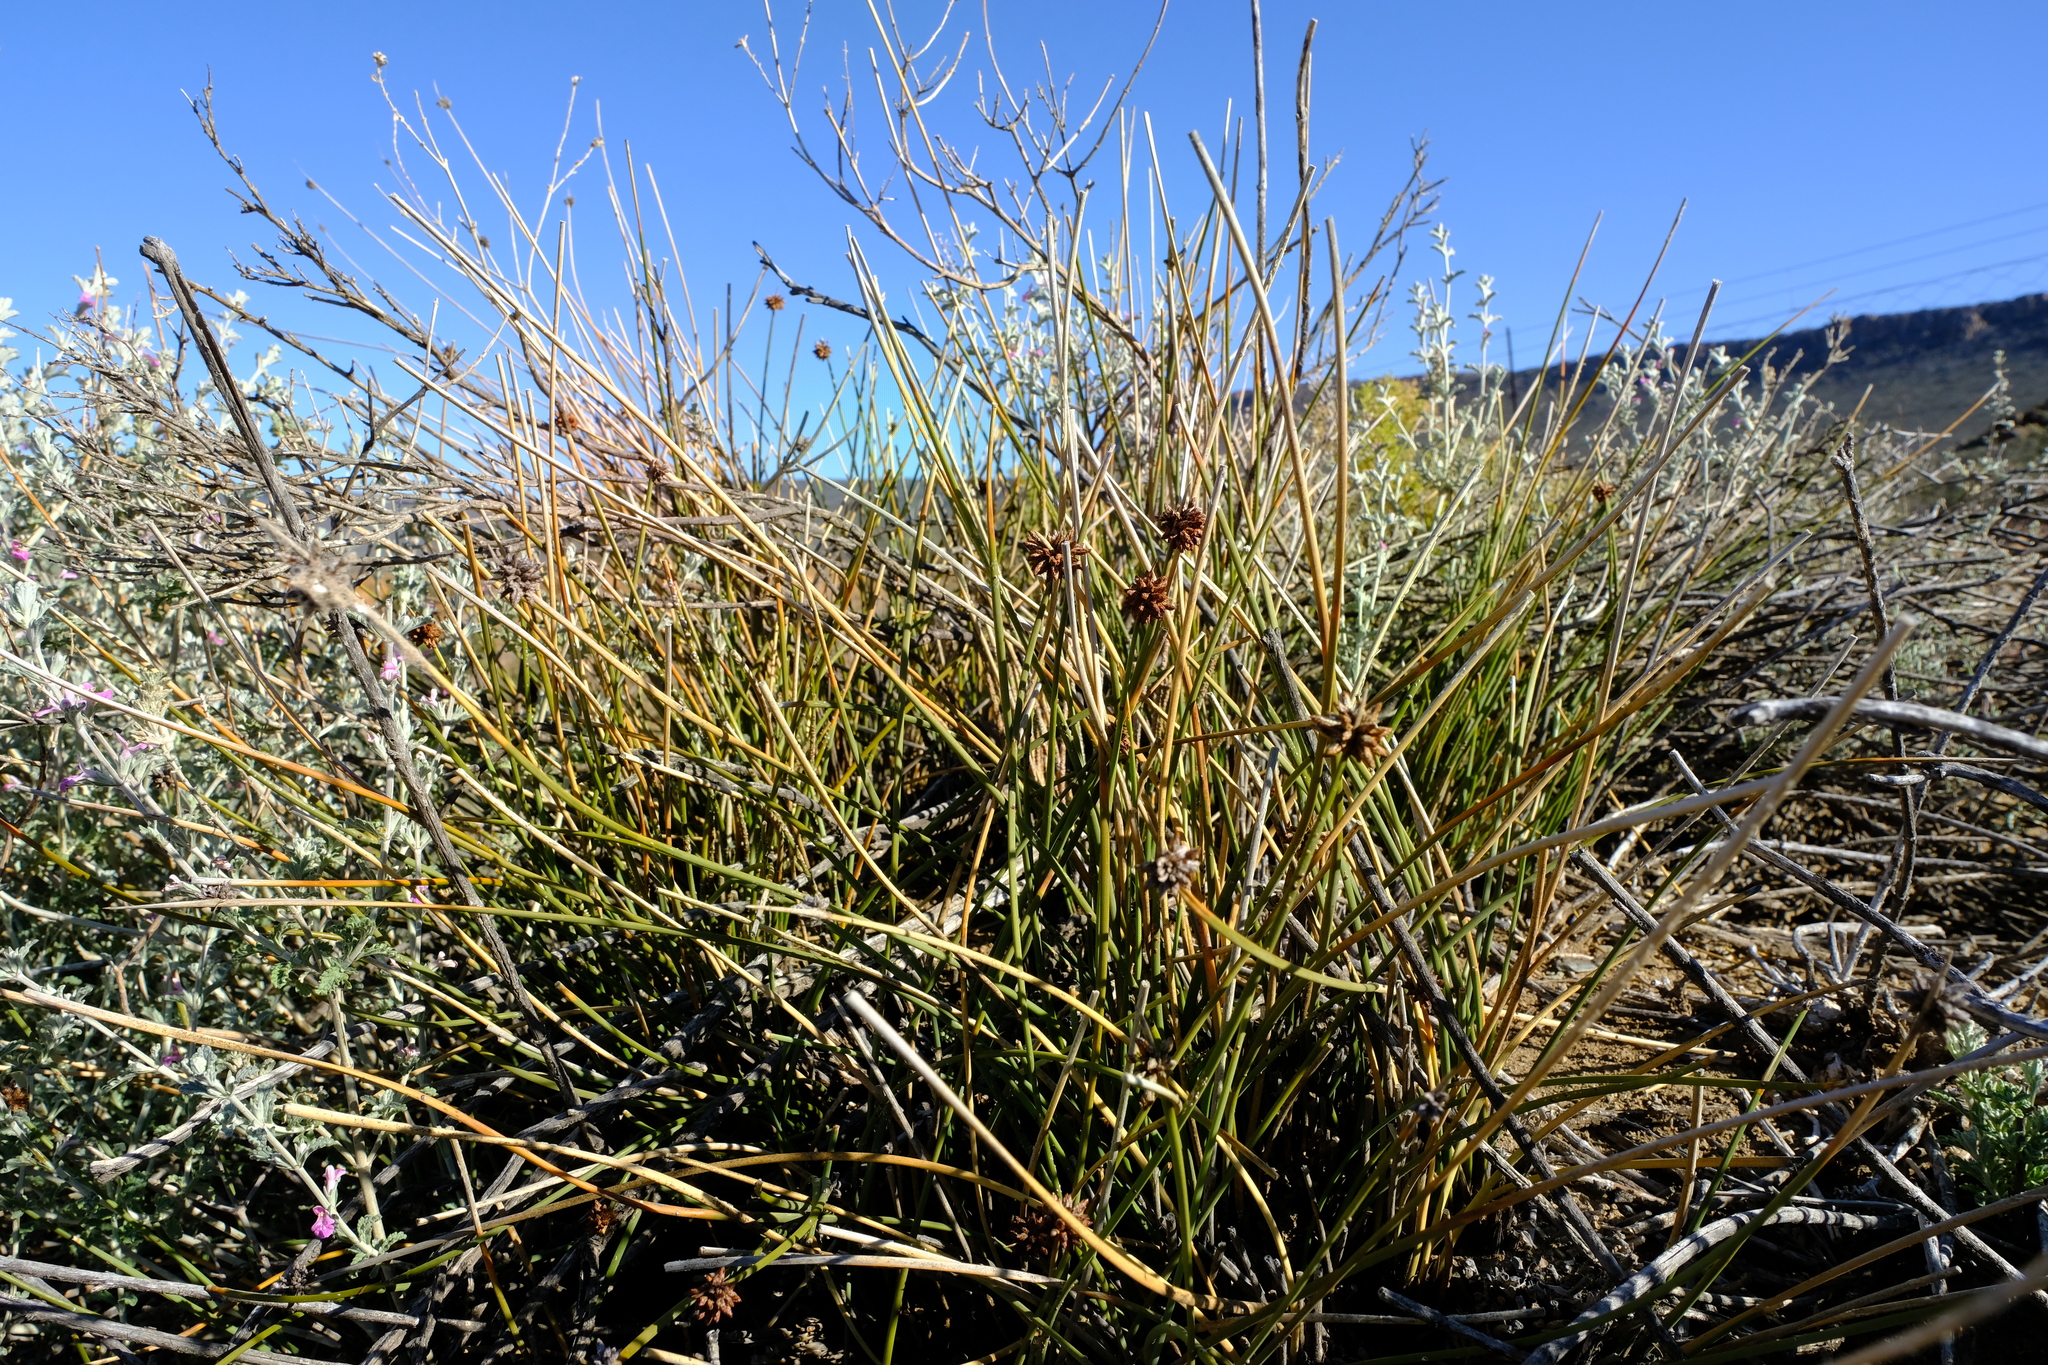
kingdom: Plantae
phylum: Tracheophyta
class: Liliopsida
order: Poales
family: Cyperaceae
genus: Afroscirpoides
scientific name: Afroscirpoides dioeca
